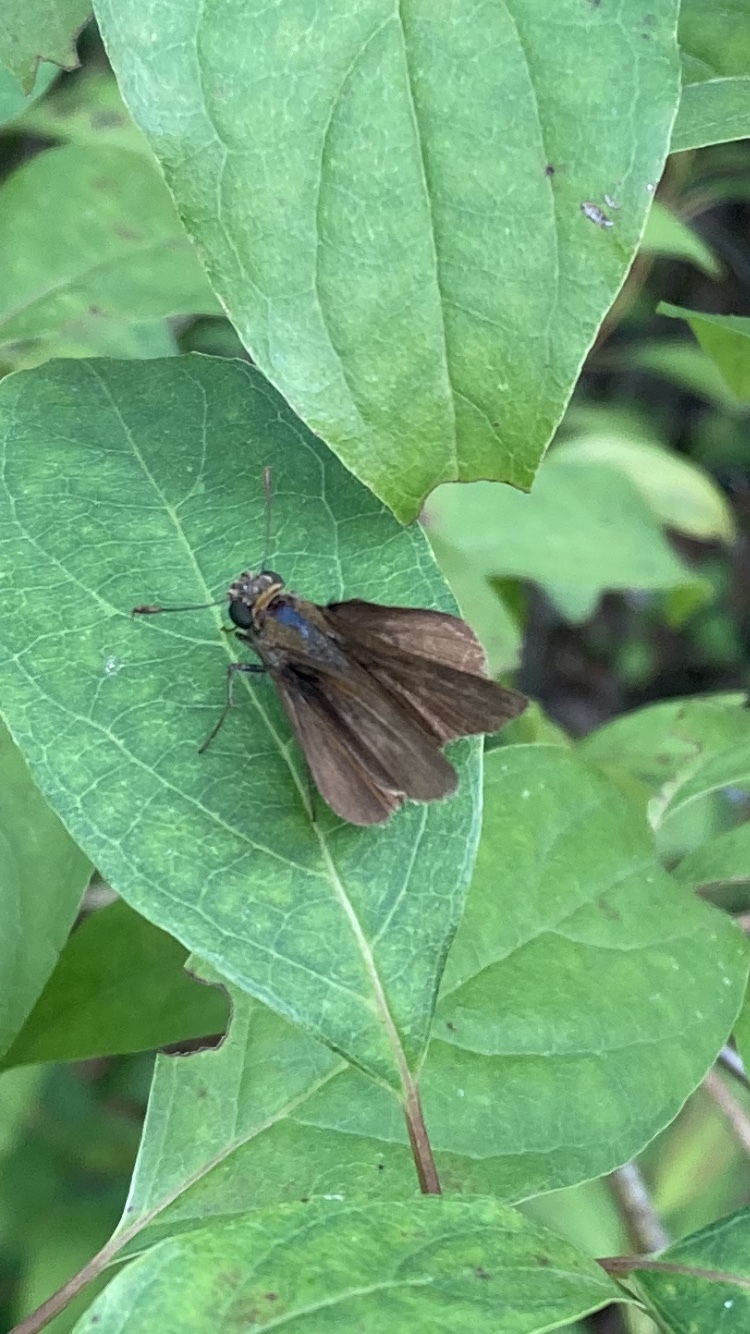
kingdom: Animalia
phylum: Arthropoda
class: Insecta
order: Lepidoptera
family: Hesperiidae
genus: Euphyes
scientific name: Euphyes vestris
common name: Dun skipper
